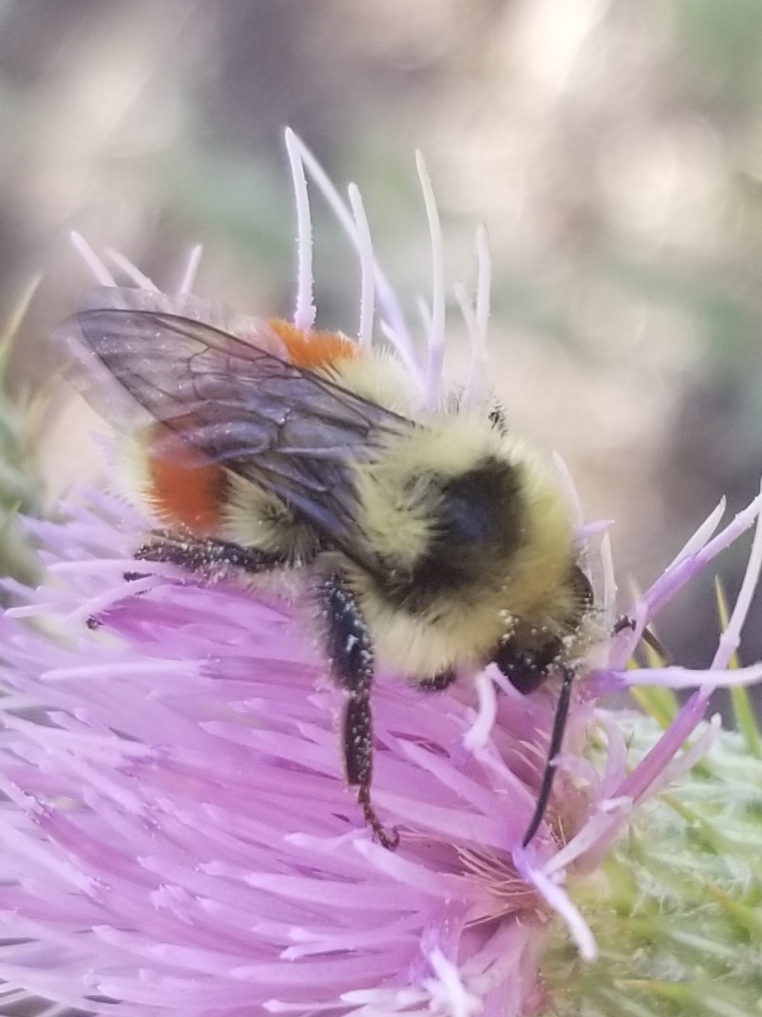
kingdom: Animalia
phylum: Arthropoda
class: Insecta
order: Hymenoptera
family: Apidae
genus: Bombus
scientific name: Bombus huntii
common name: Hunt bumble bee
